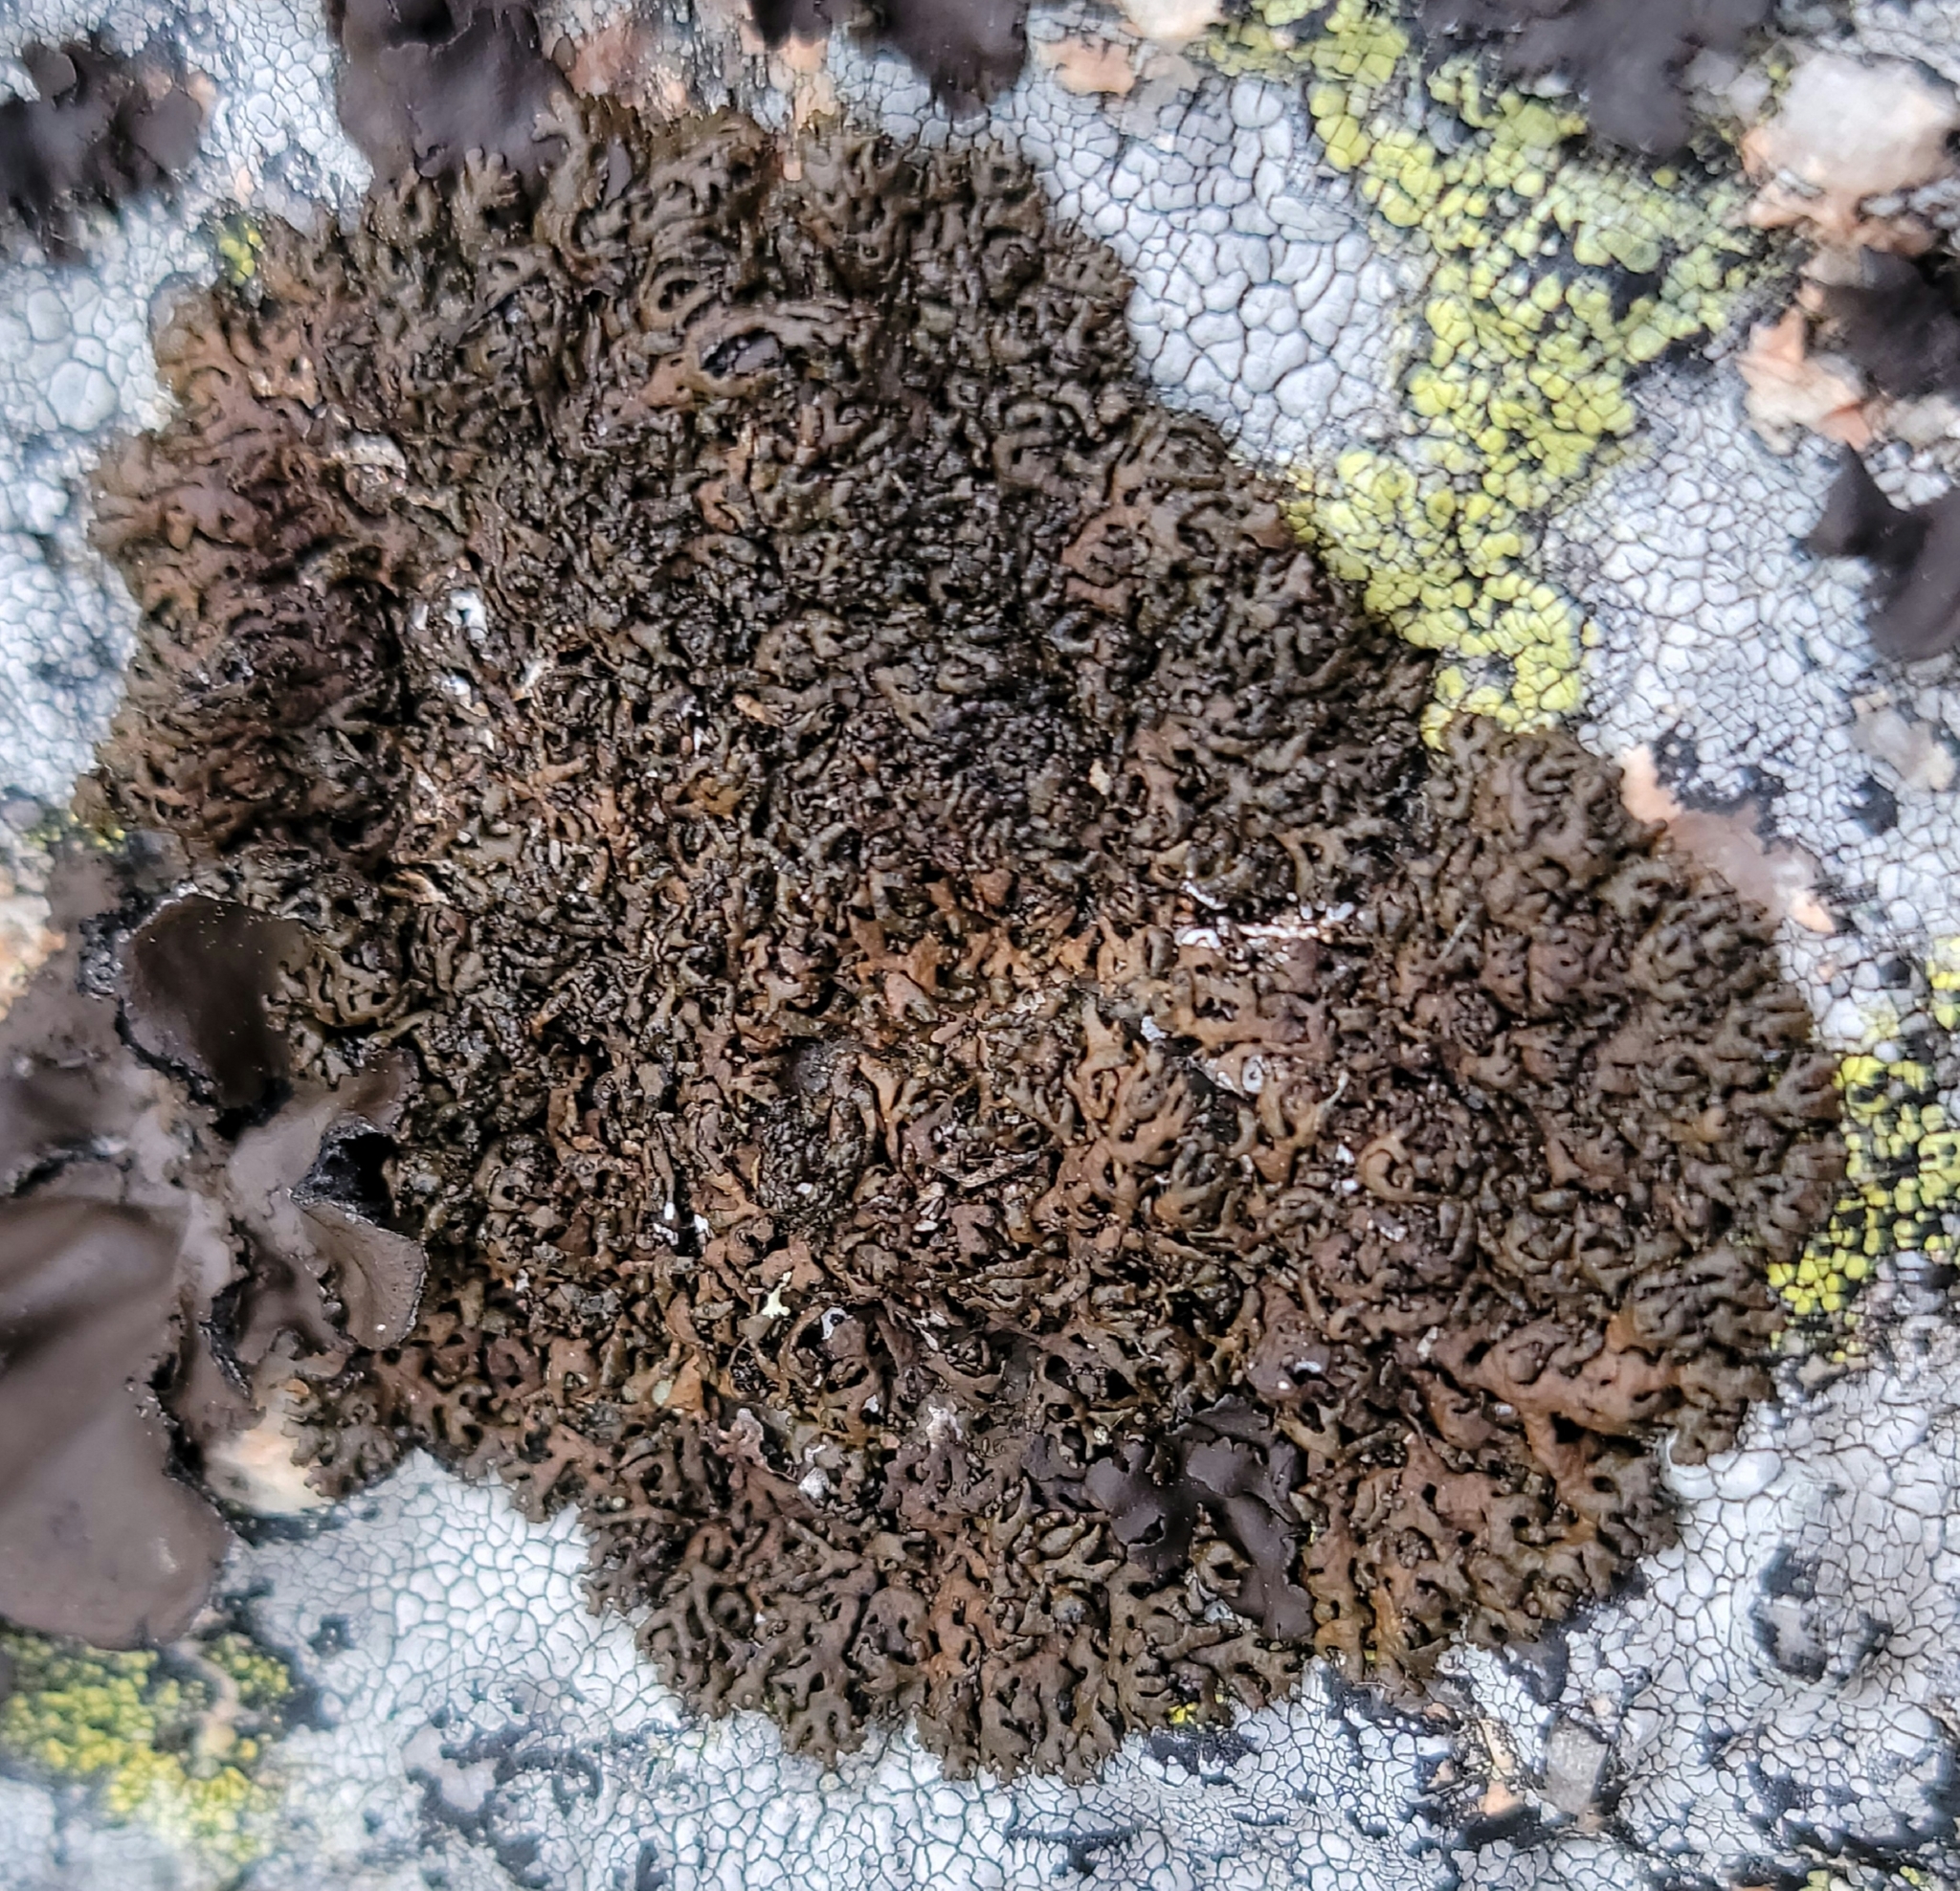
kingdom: Fungi
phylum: Ascomycota
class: Lecanoromycetes
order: Lecanorales
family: Parmeliaceae
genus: Melanelia
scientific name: Melanelia stygia
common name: Alpine camouflage lichen
